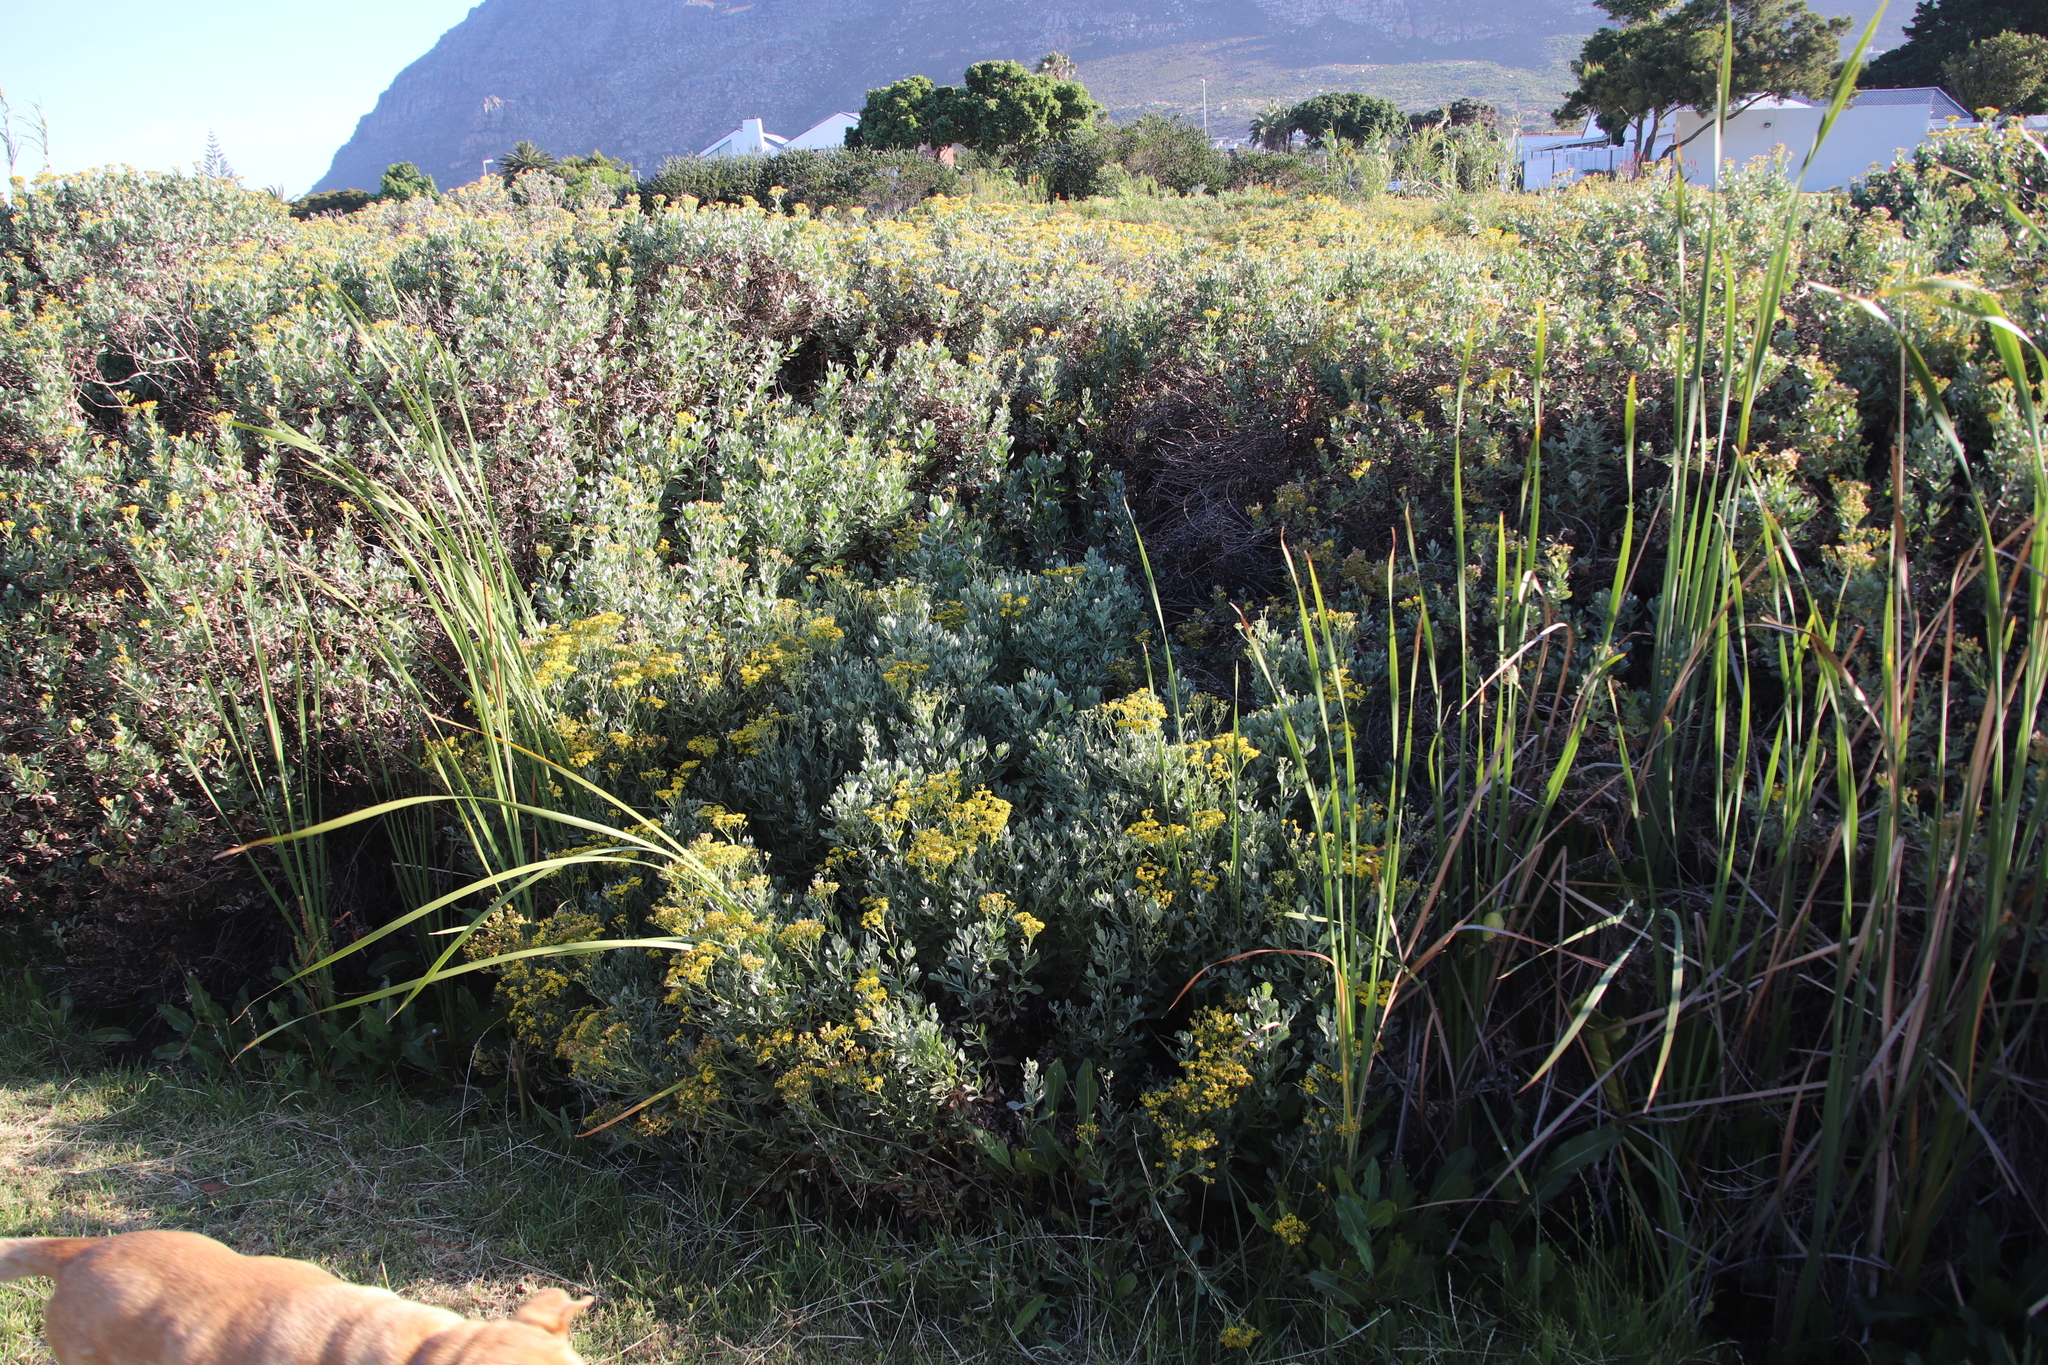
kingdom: Plantae
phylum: Tracheophyta
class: Magnoliopsida
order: Asterales
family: Asteraceae
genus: Senecio
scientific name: Senecio halimifolius
